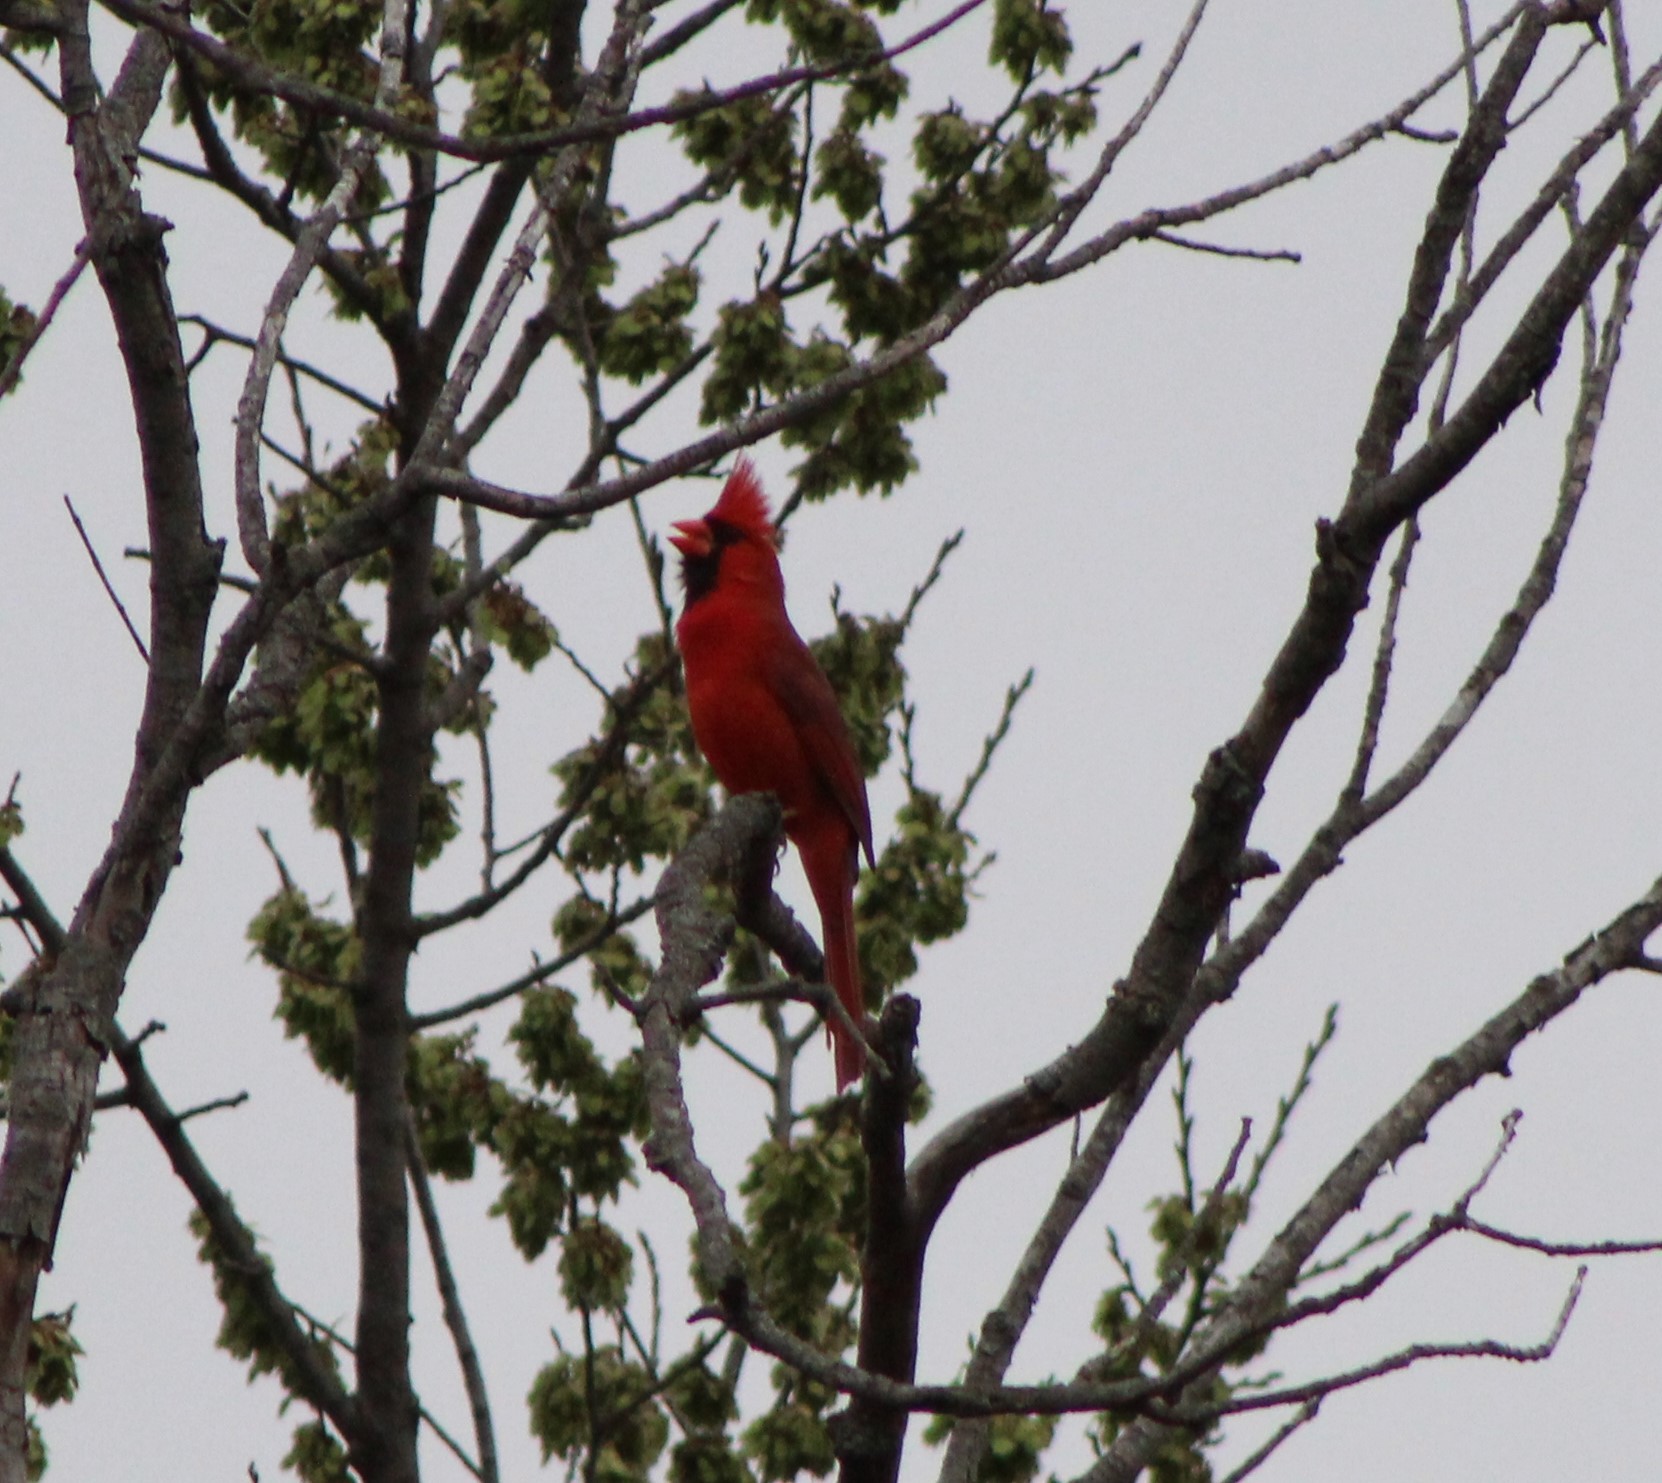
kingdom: Animalia
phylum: Chordata
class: Aves
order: Passeriformes
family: Cardinalidae
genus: Cardinalis
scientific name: Cardinalis cardinalis
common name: Northern cardinal
